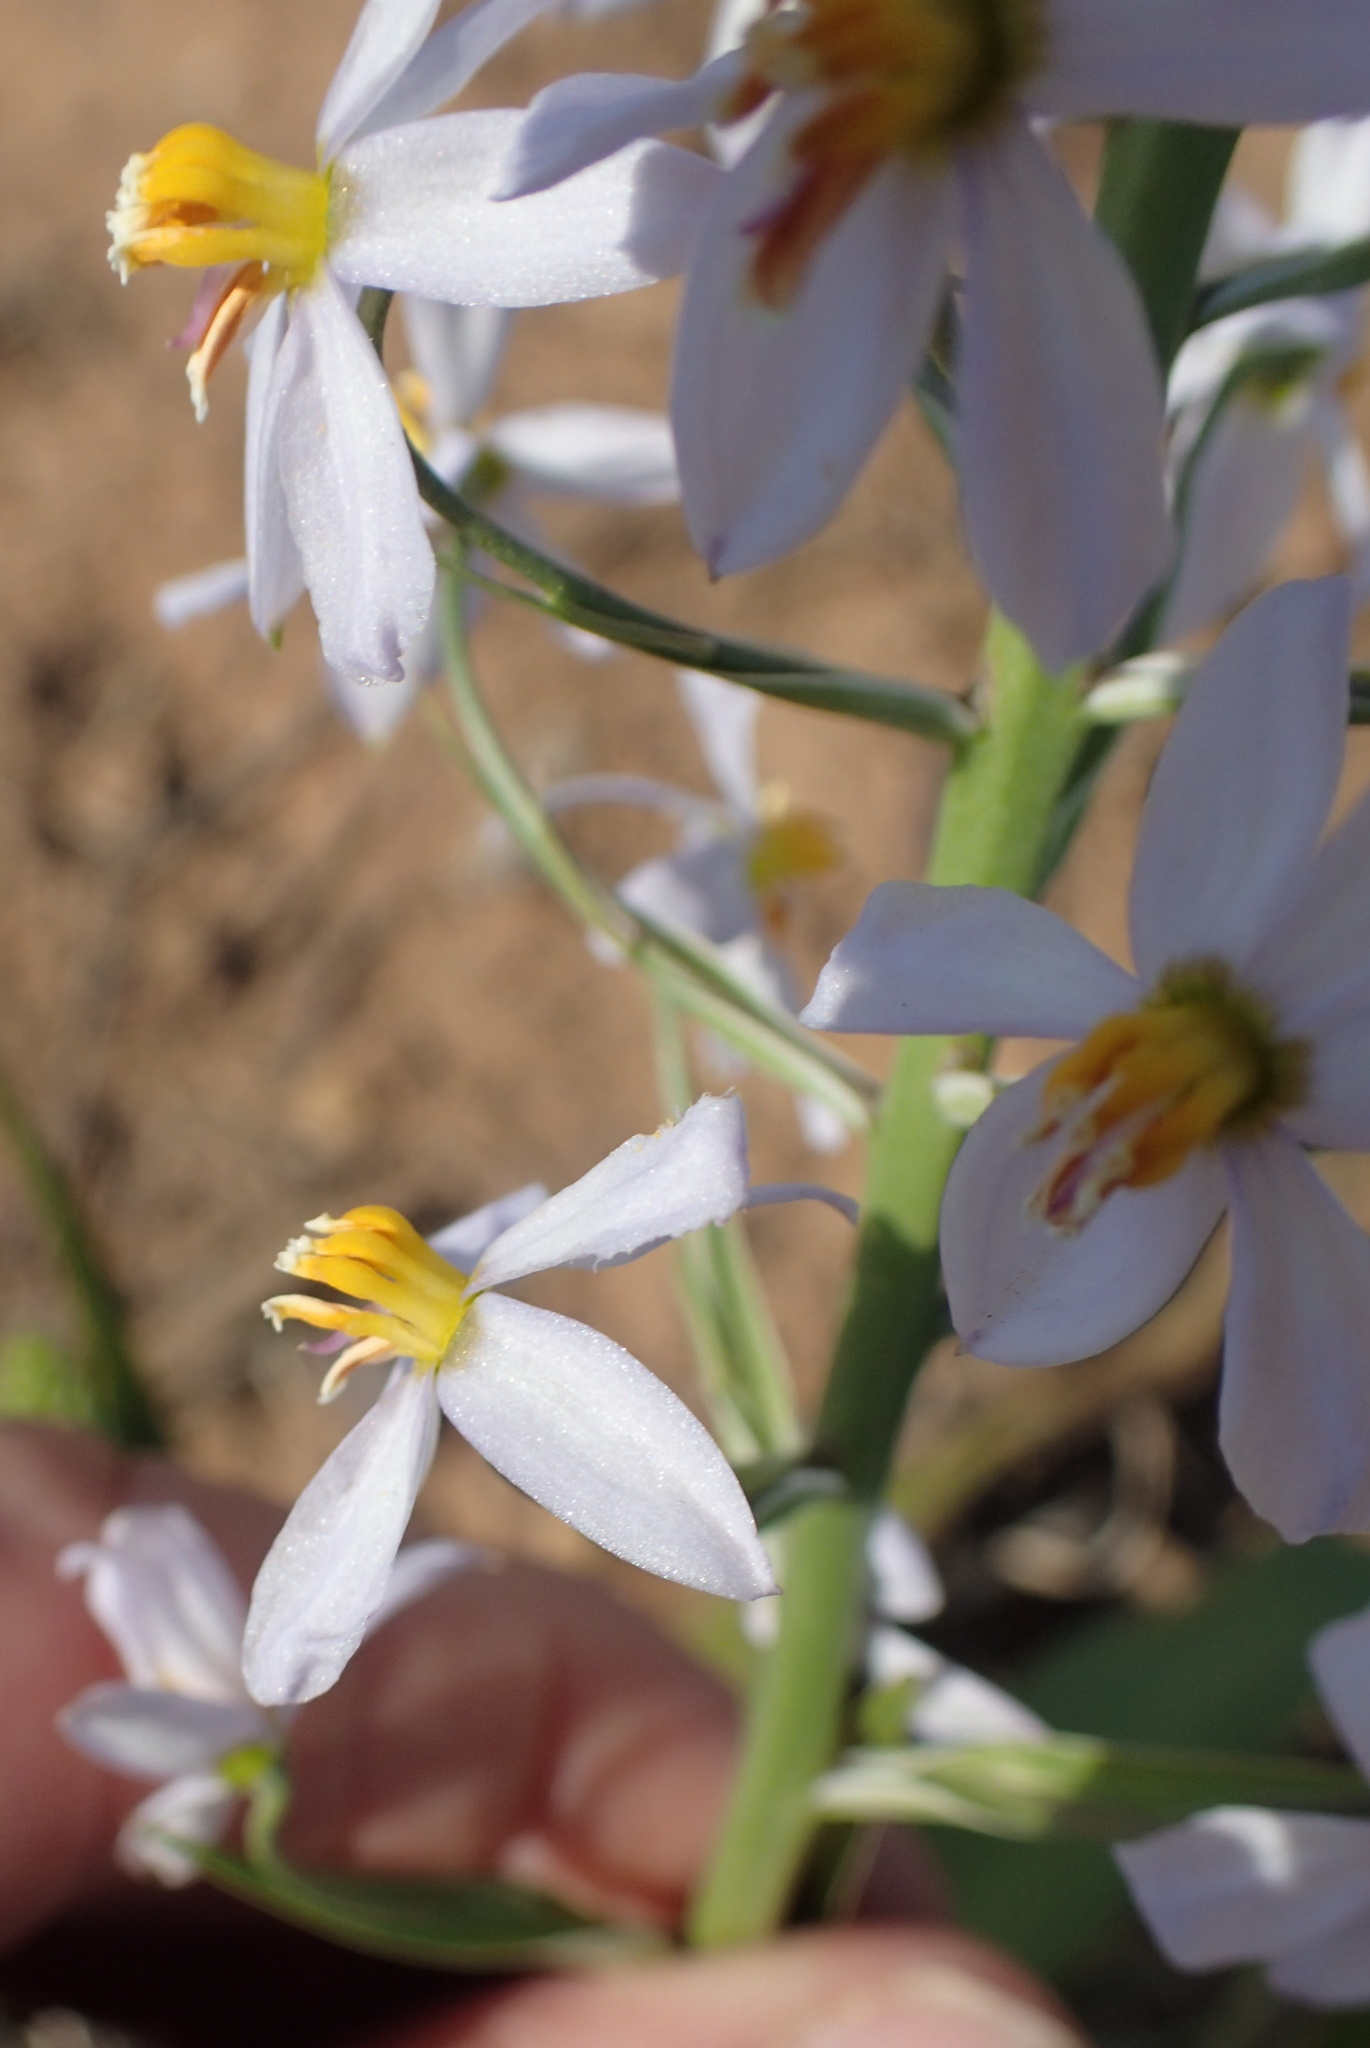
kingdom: Plantae
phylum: Tracheophyta
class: Liliopsida
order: Asparagales
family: Tecophilaeaceae
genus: Cyanella
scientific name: Cyanella hyacinthoides
